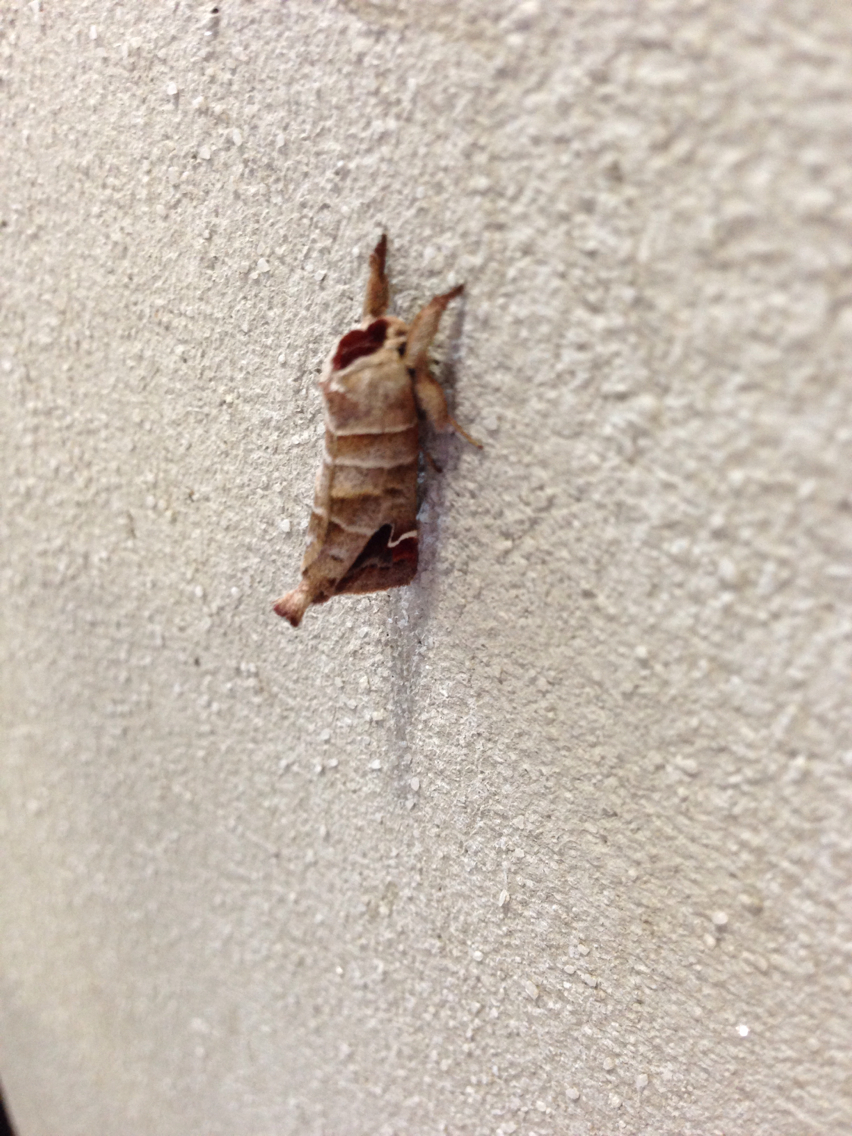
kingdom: Animalia
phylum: Arthropoda
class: Insecta
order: Lepidoptera
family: Notodontidae
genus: Clostera
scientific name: Clostera albosigma
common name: Sigmoid prominent
